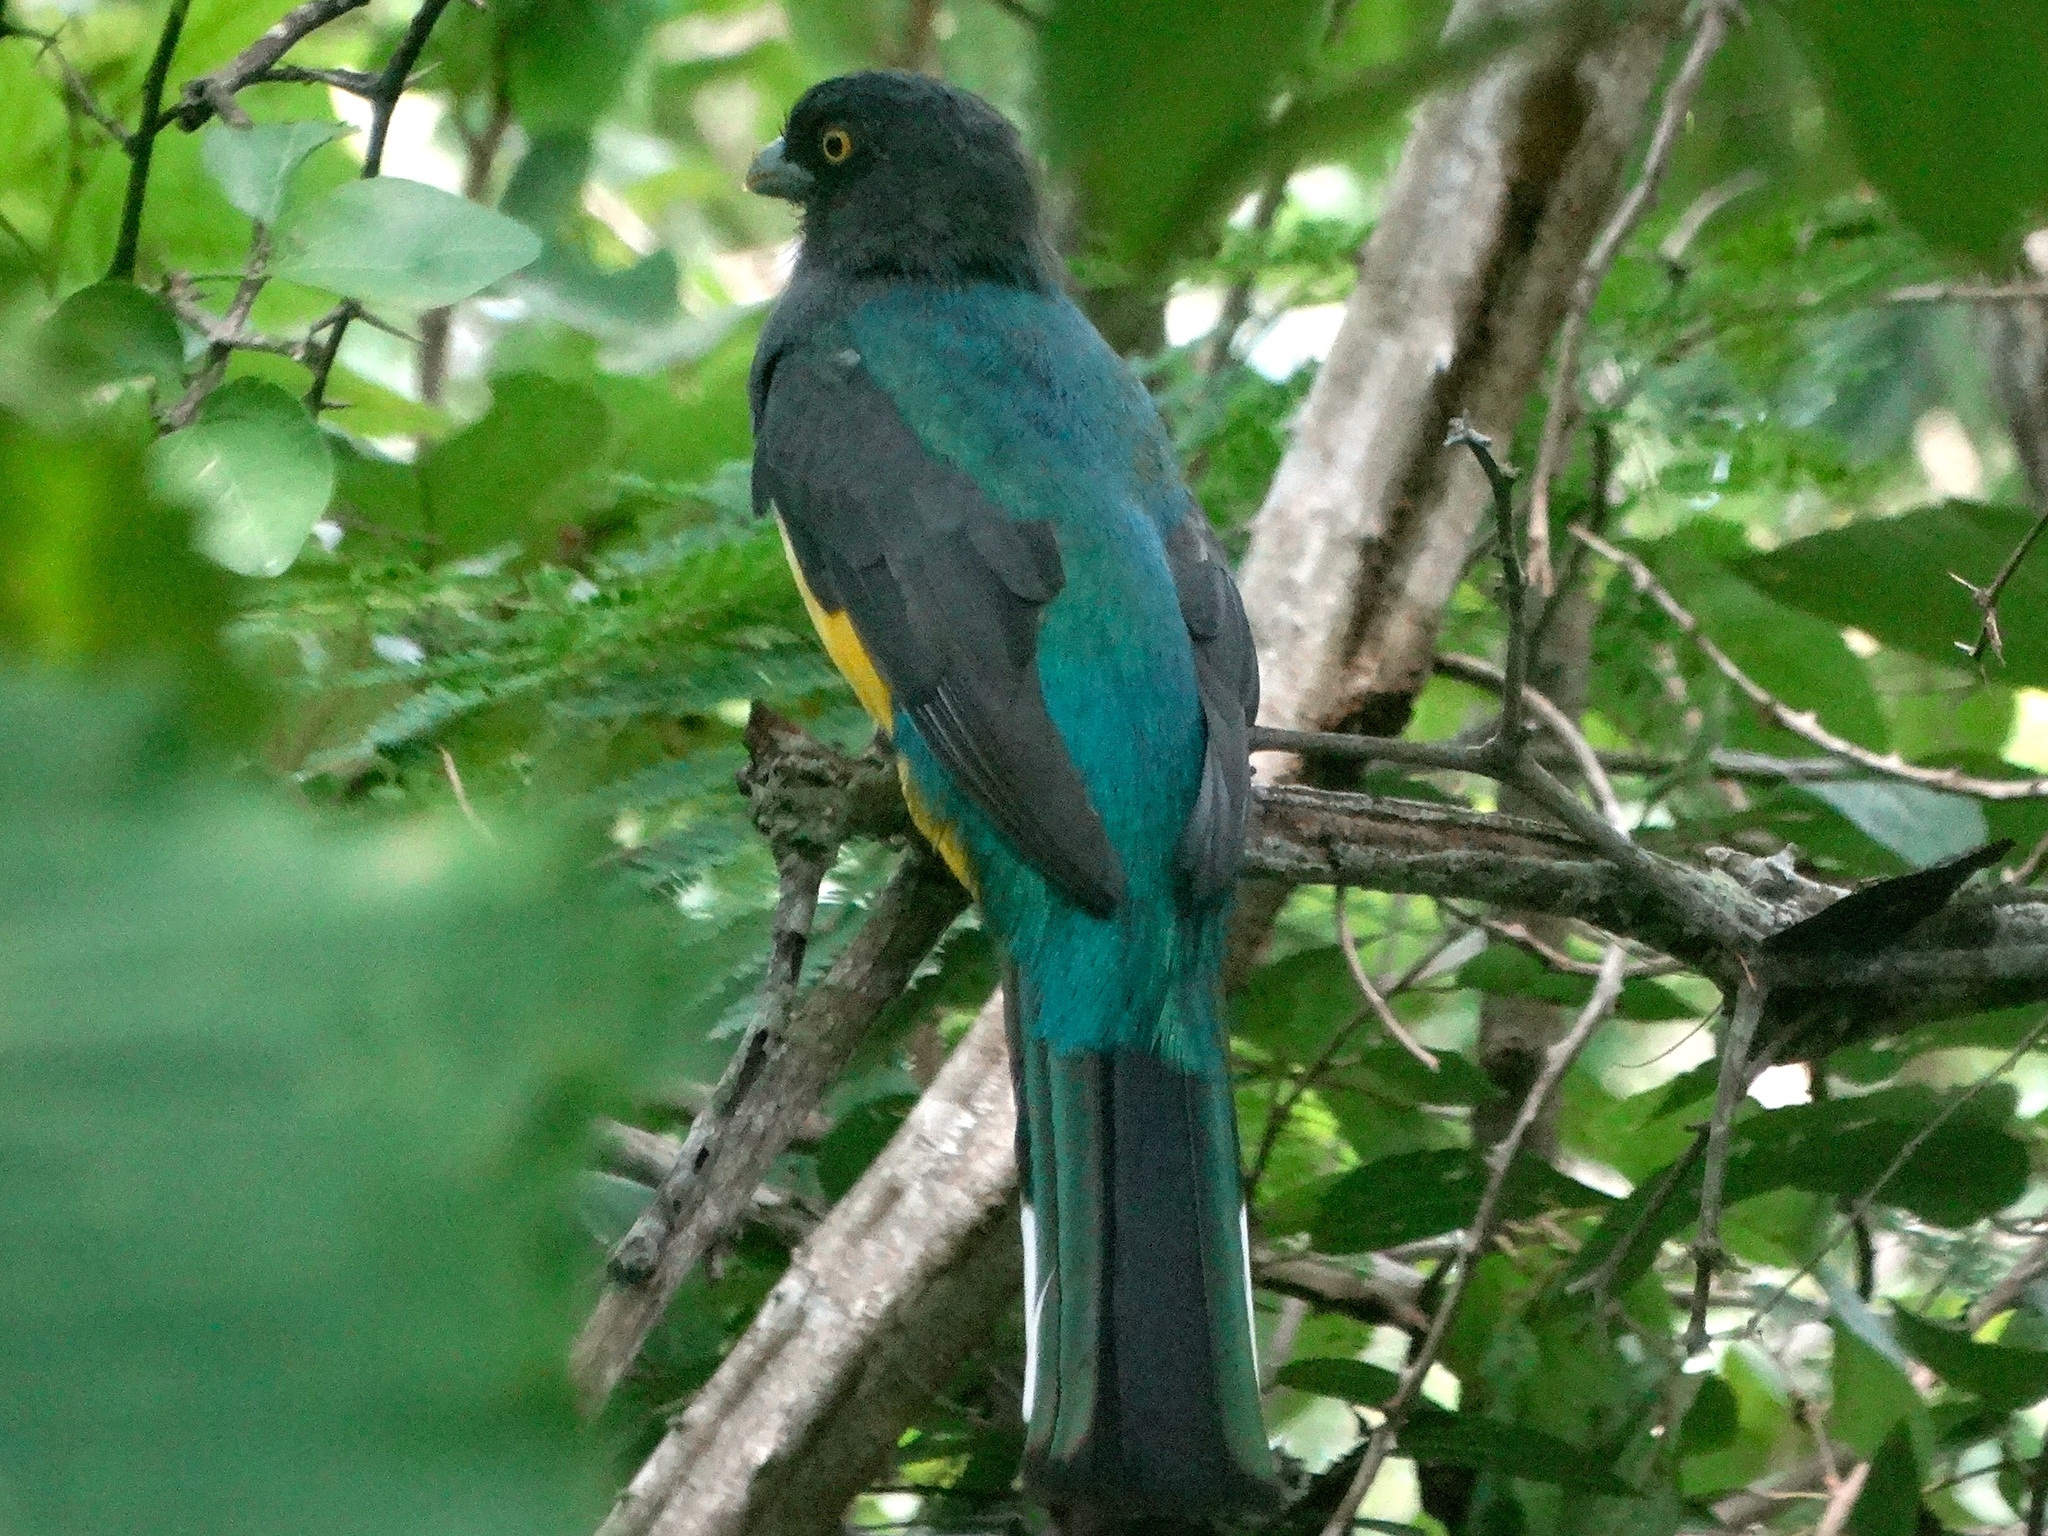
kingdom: Animalia
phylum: Chordata
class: Aves
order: Trogoniformes
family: Trogonidae
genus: Trogon
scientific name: Trogon citreolus
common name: Citreoline trogon
